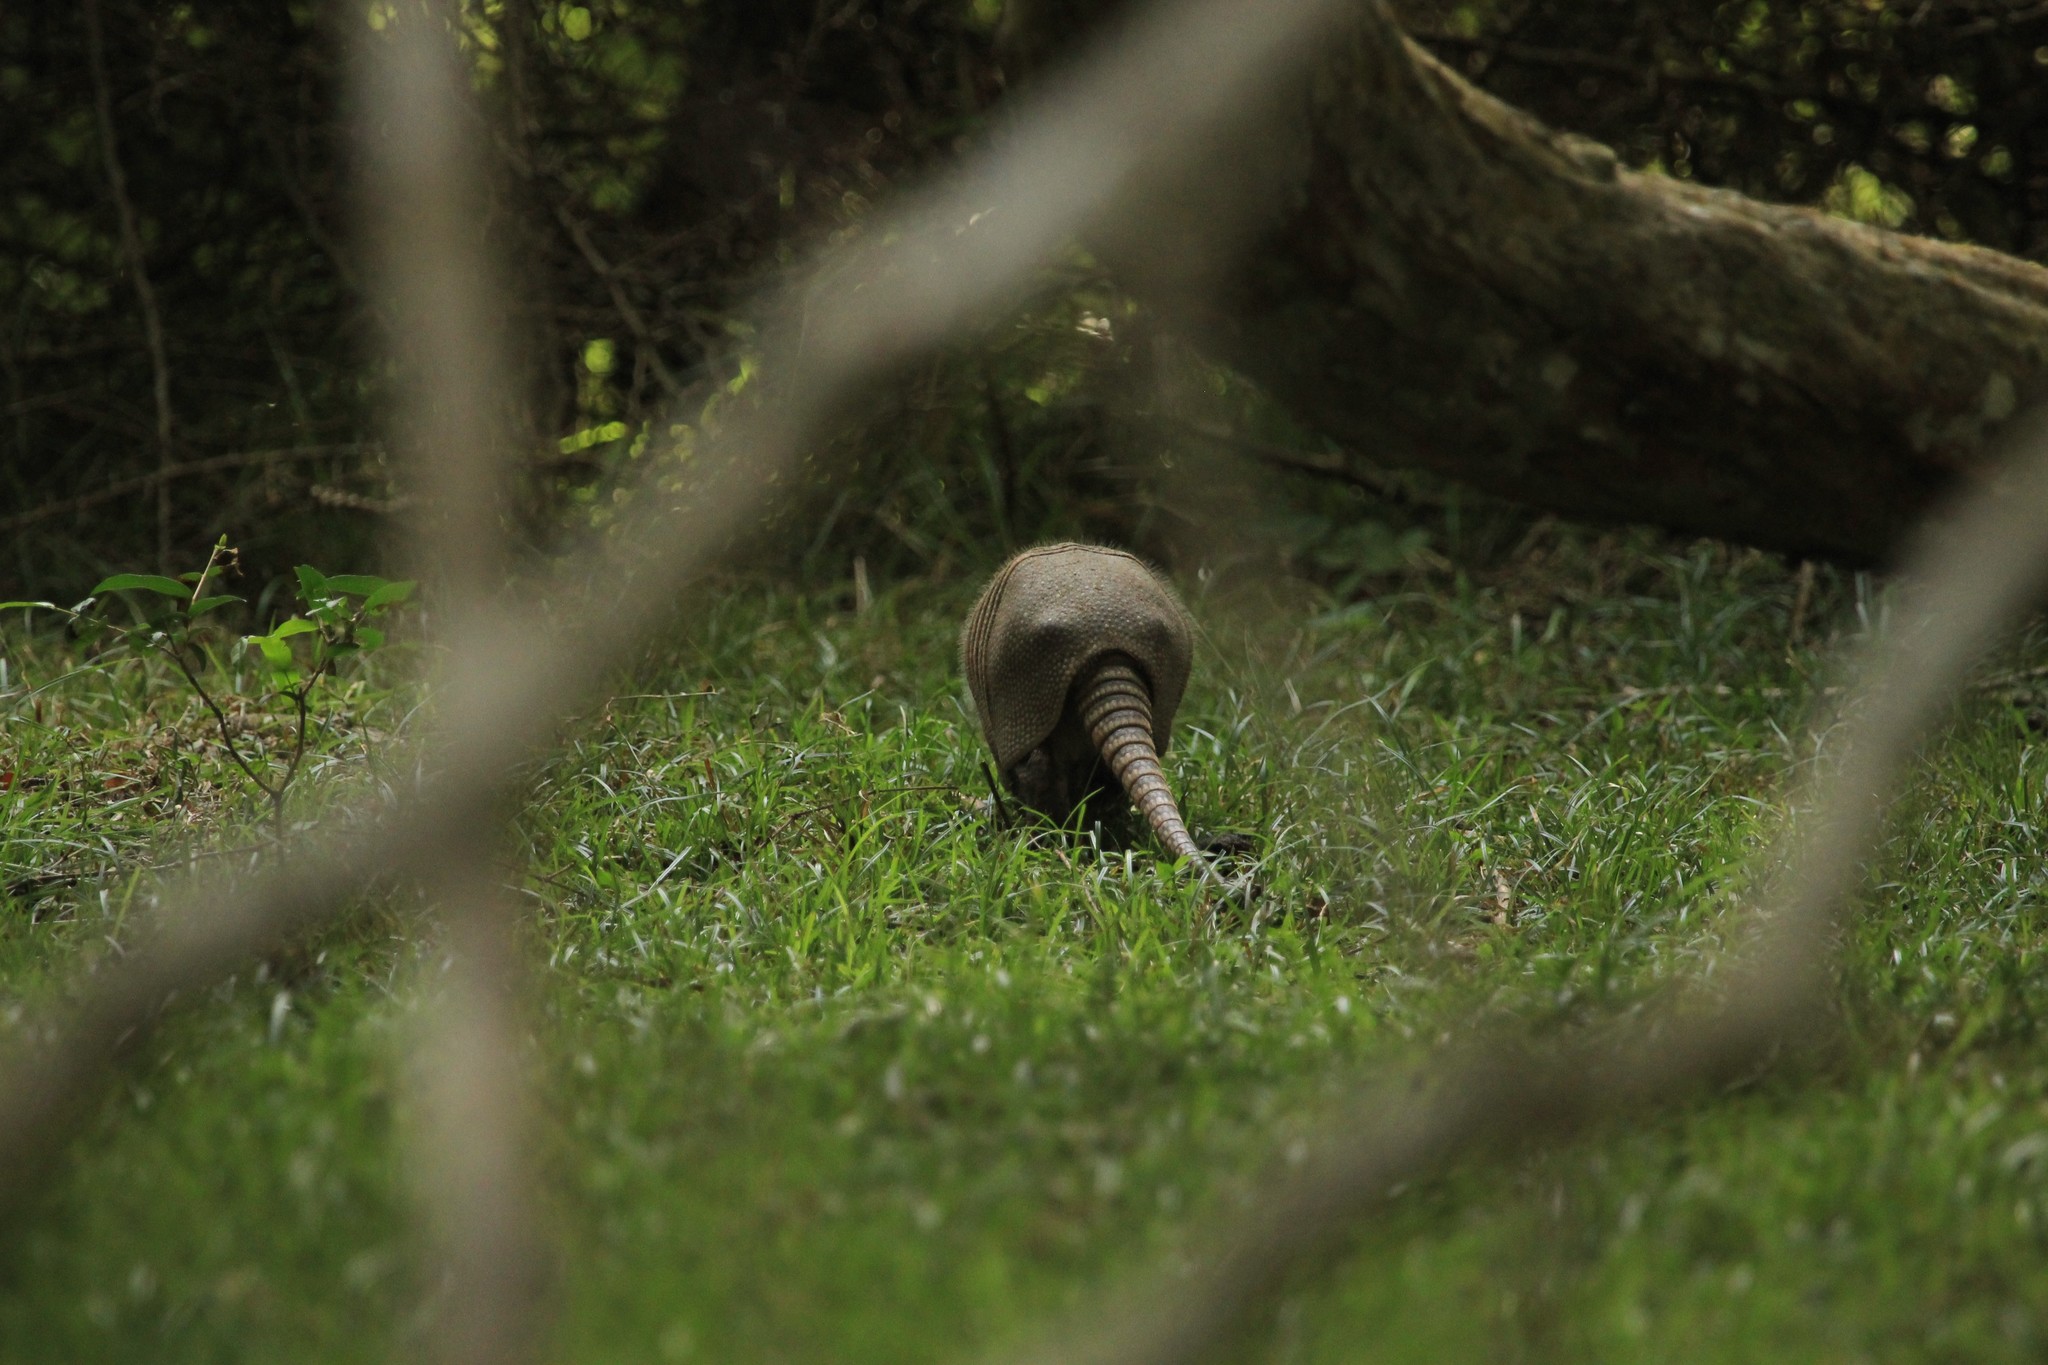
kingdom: Animalia
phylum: Chordata
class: Mammalia
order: Cingulata
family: Dasypodidae
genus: Dasypus
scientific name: Dasypus novemcinctus
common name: Nine-banded armadillo
